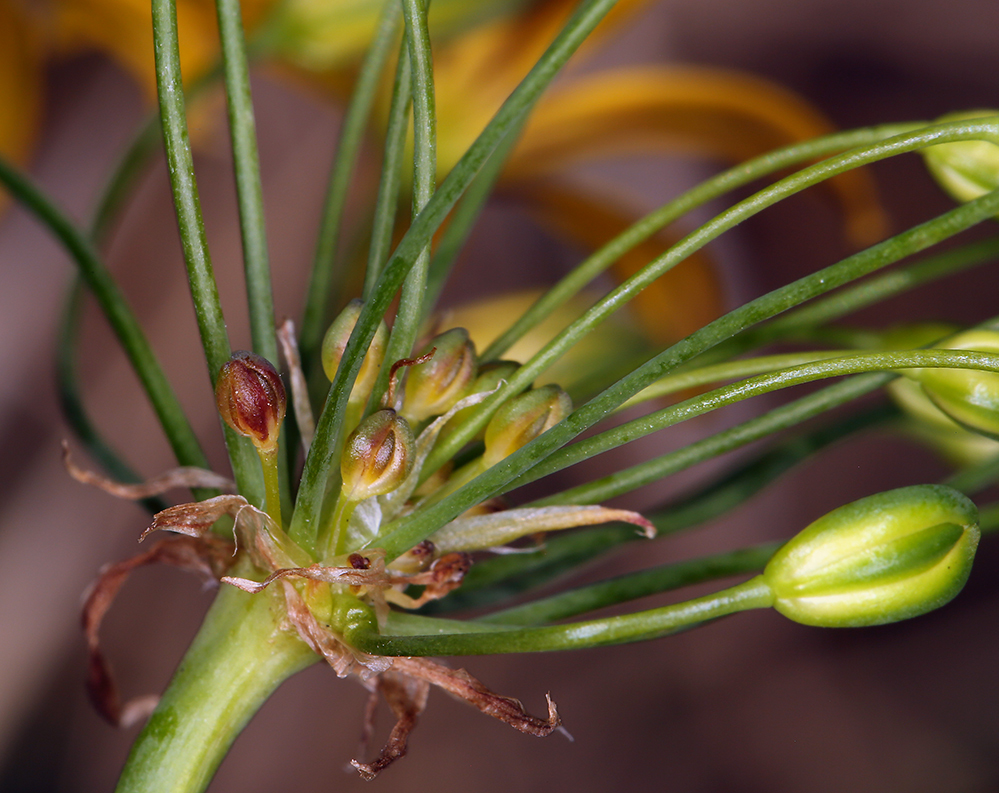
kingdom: Plantae
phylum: Tracheophyta
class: Liliopsida
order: Asparagales
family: Asparagaceae
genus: Bloomeria
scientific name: Bloomeria crocea
